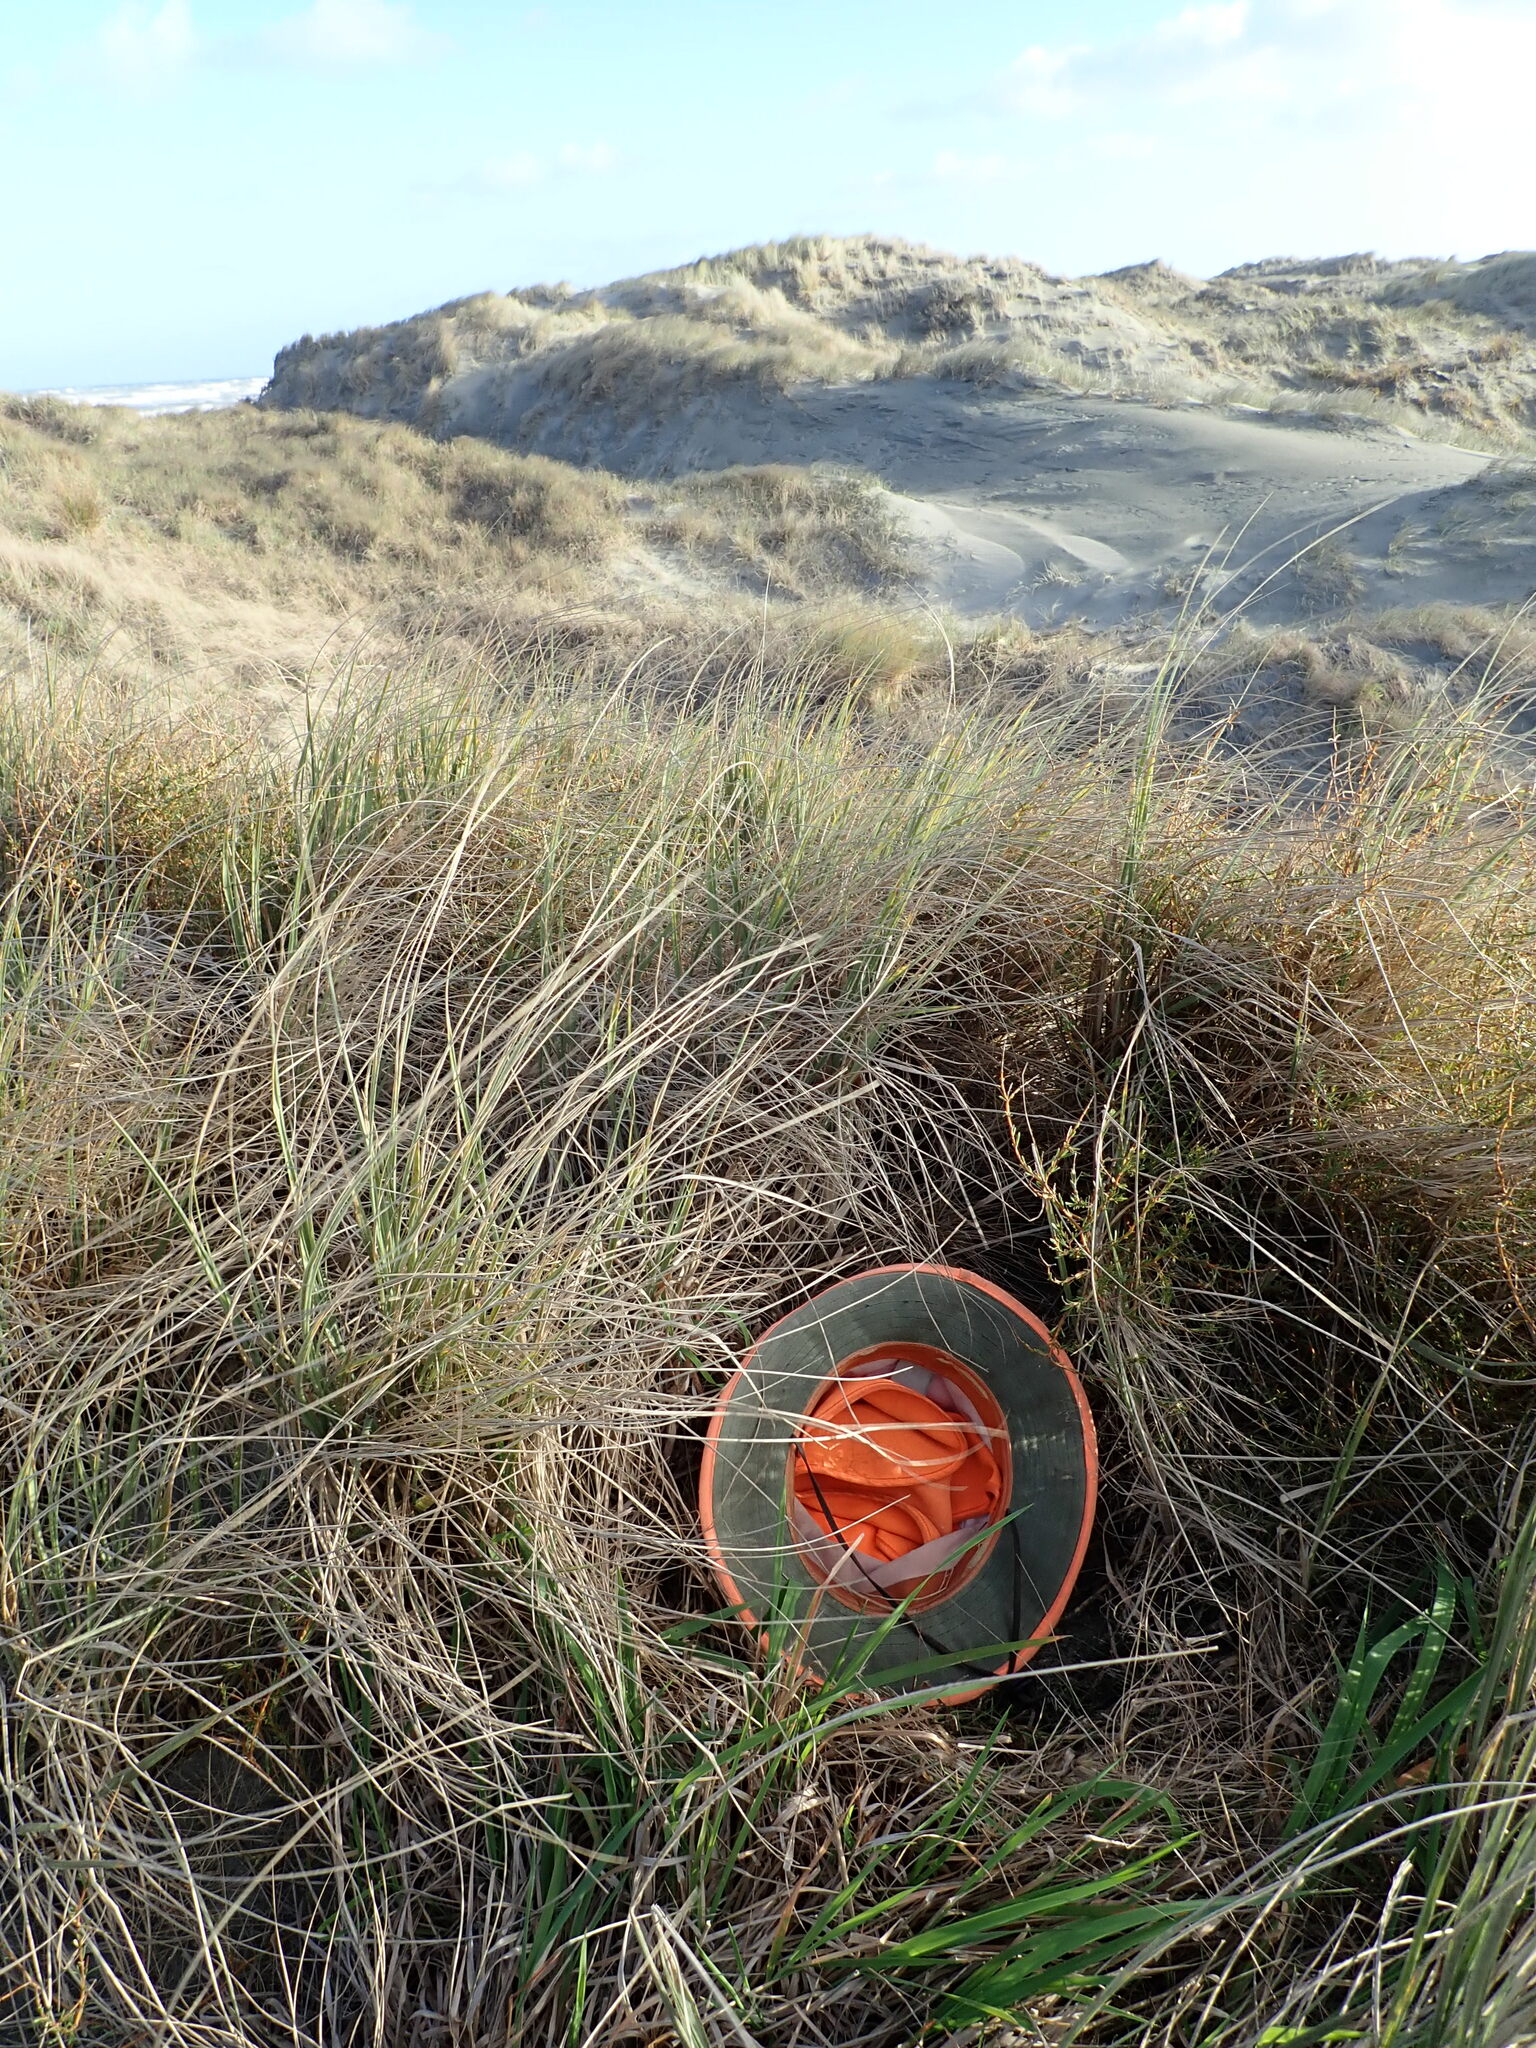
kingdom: Plantae
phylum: Tracheophyta
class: Magnoliopsida
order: Fabales
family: Fabaceae
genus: Acacia
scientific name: Acacia longifolia
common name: Sydney golden wattle
